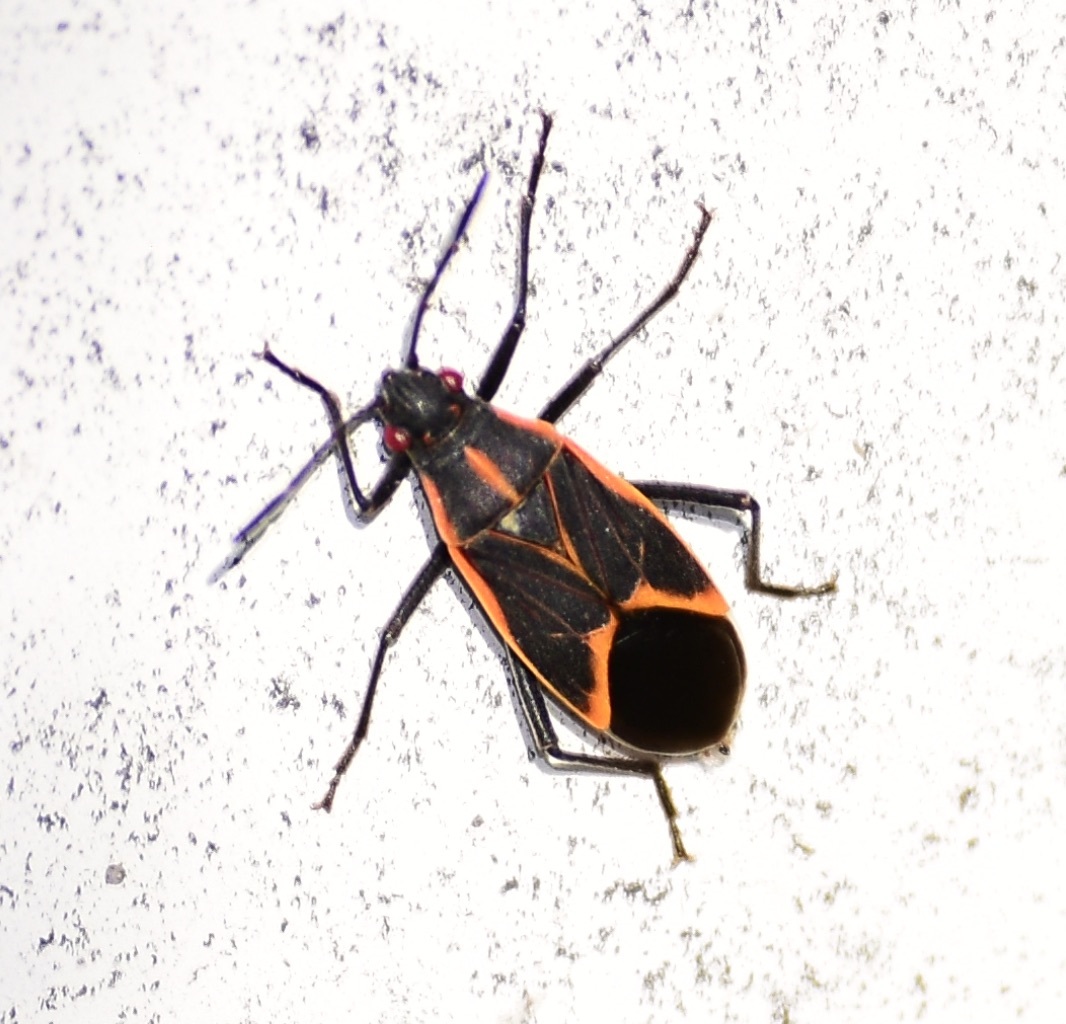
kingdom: Animalia
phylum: Arthropoda
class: Insecta
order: Hemiptera
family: Rhopalidae
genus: Boisea
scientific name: Boisea trivittata
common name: Boxelder bug
